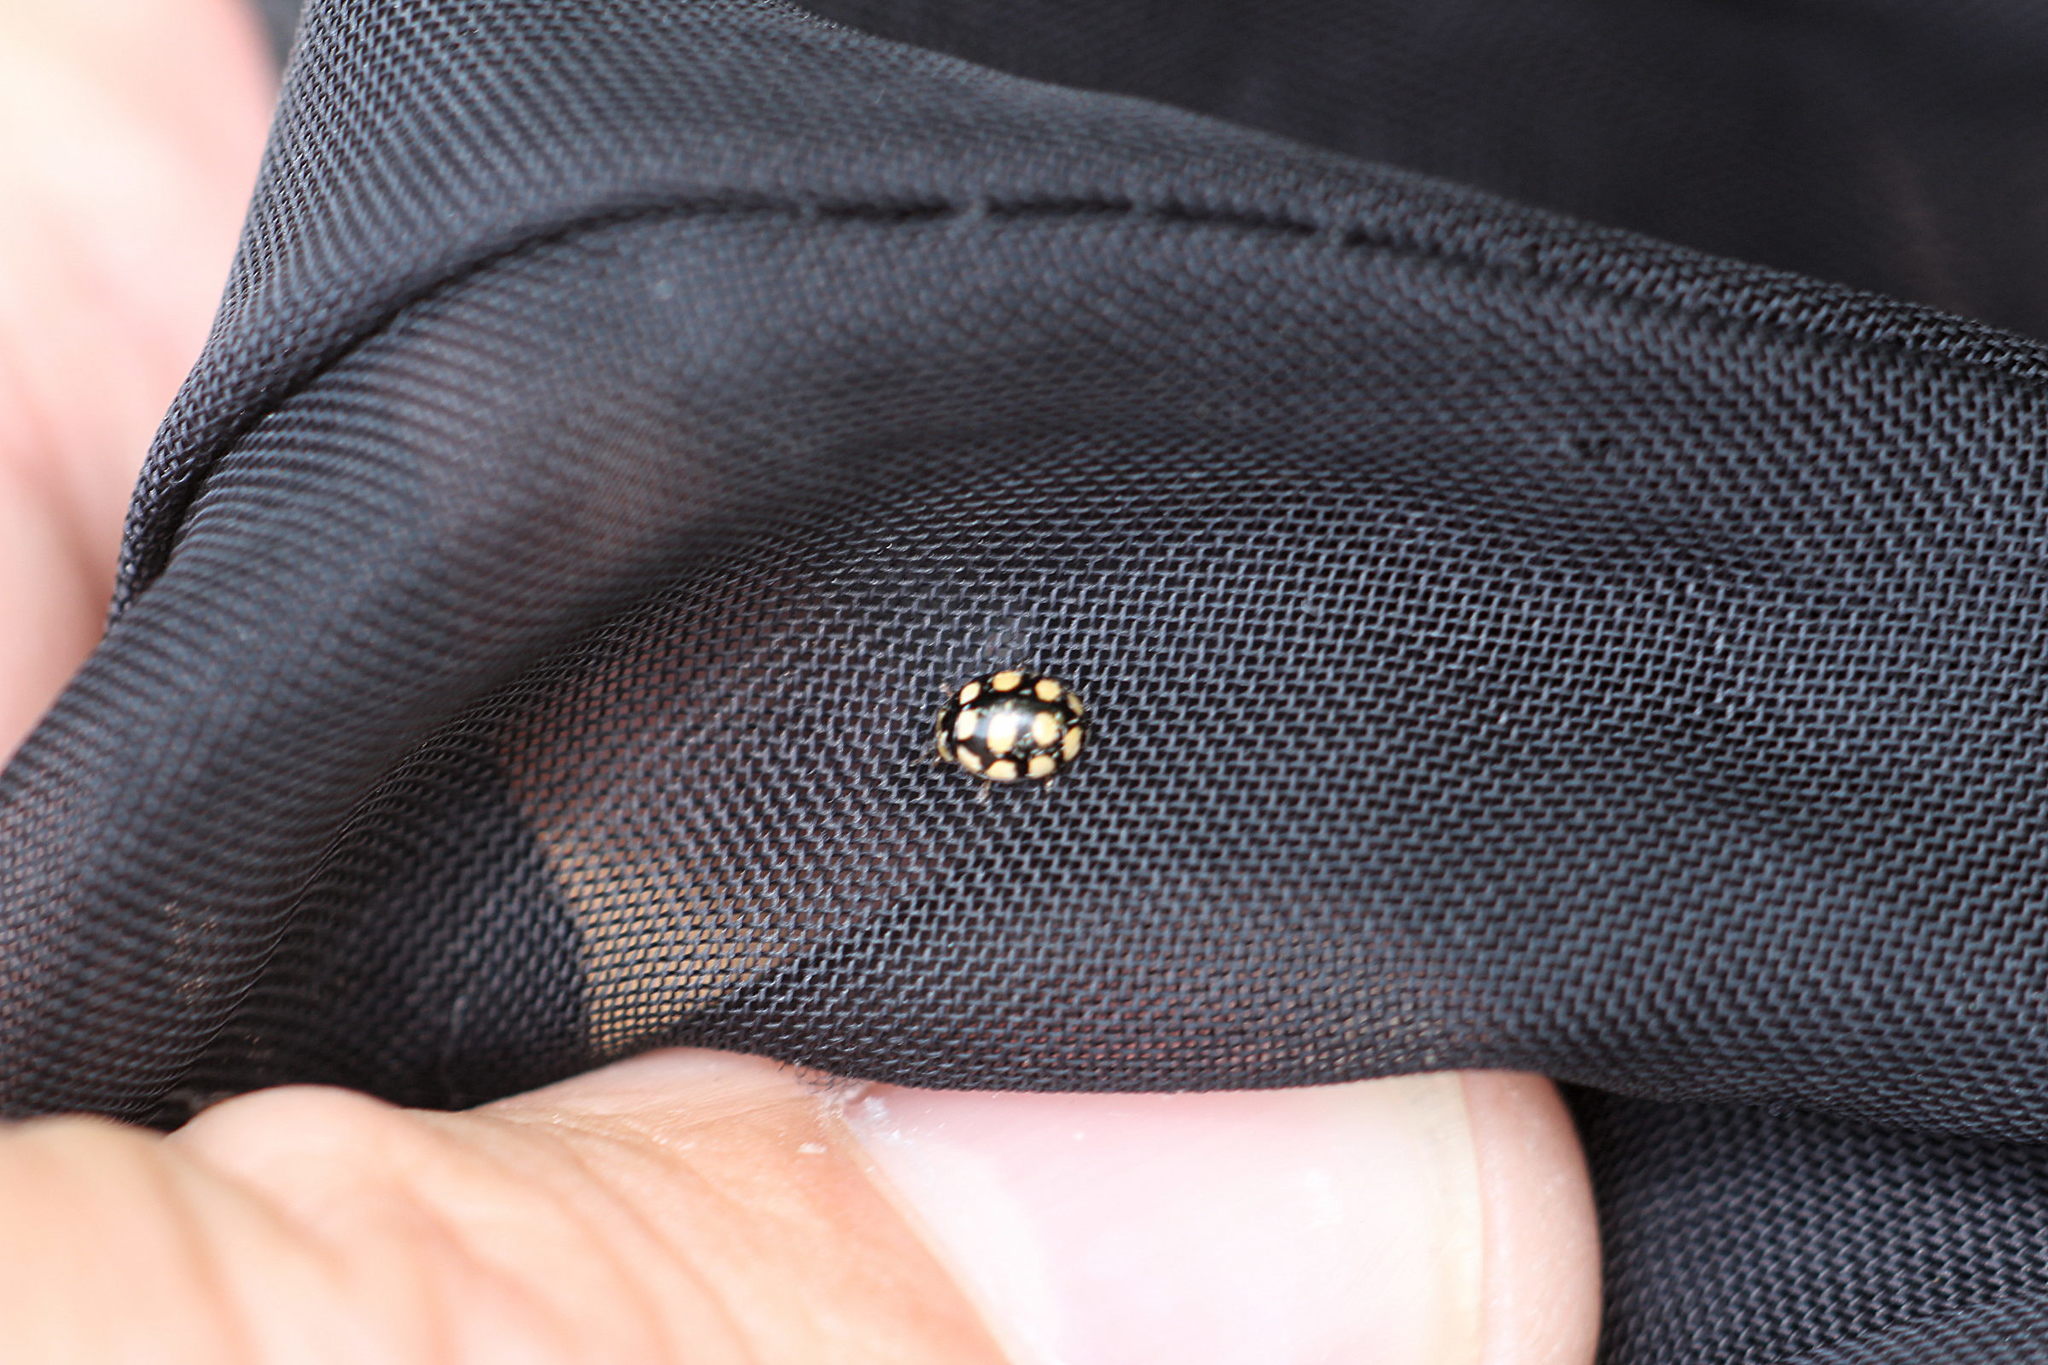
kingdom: Animalia
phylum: Arthropoda
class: Insecta
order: Coleoptera
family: Coccinellidae
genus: Coccinula
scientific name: Coccinula quatuordecimpustulata
